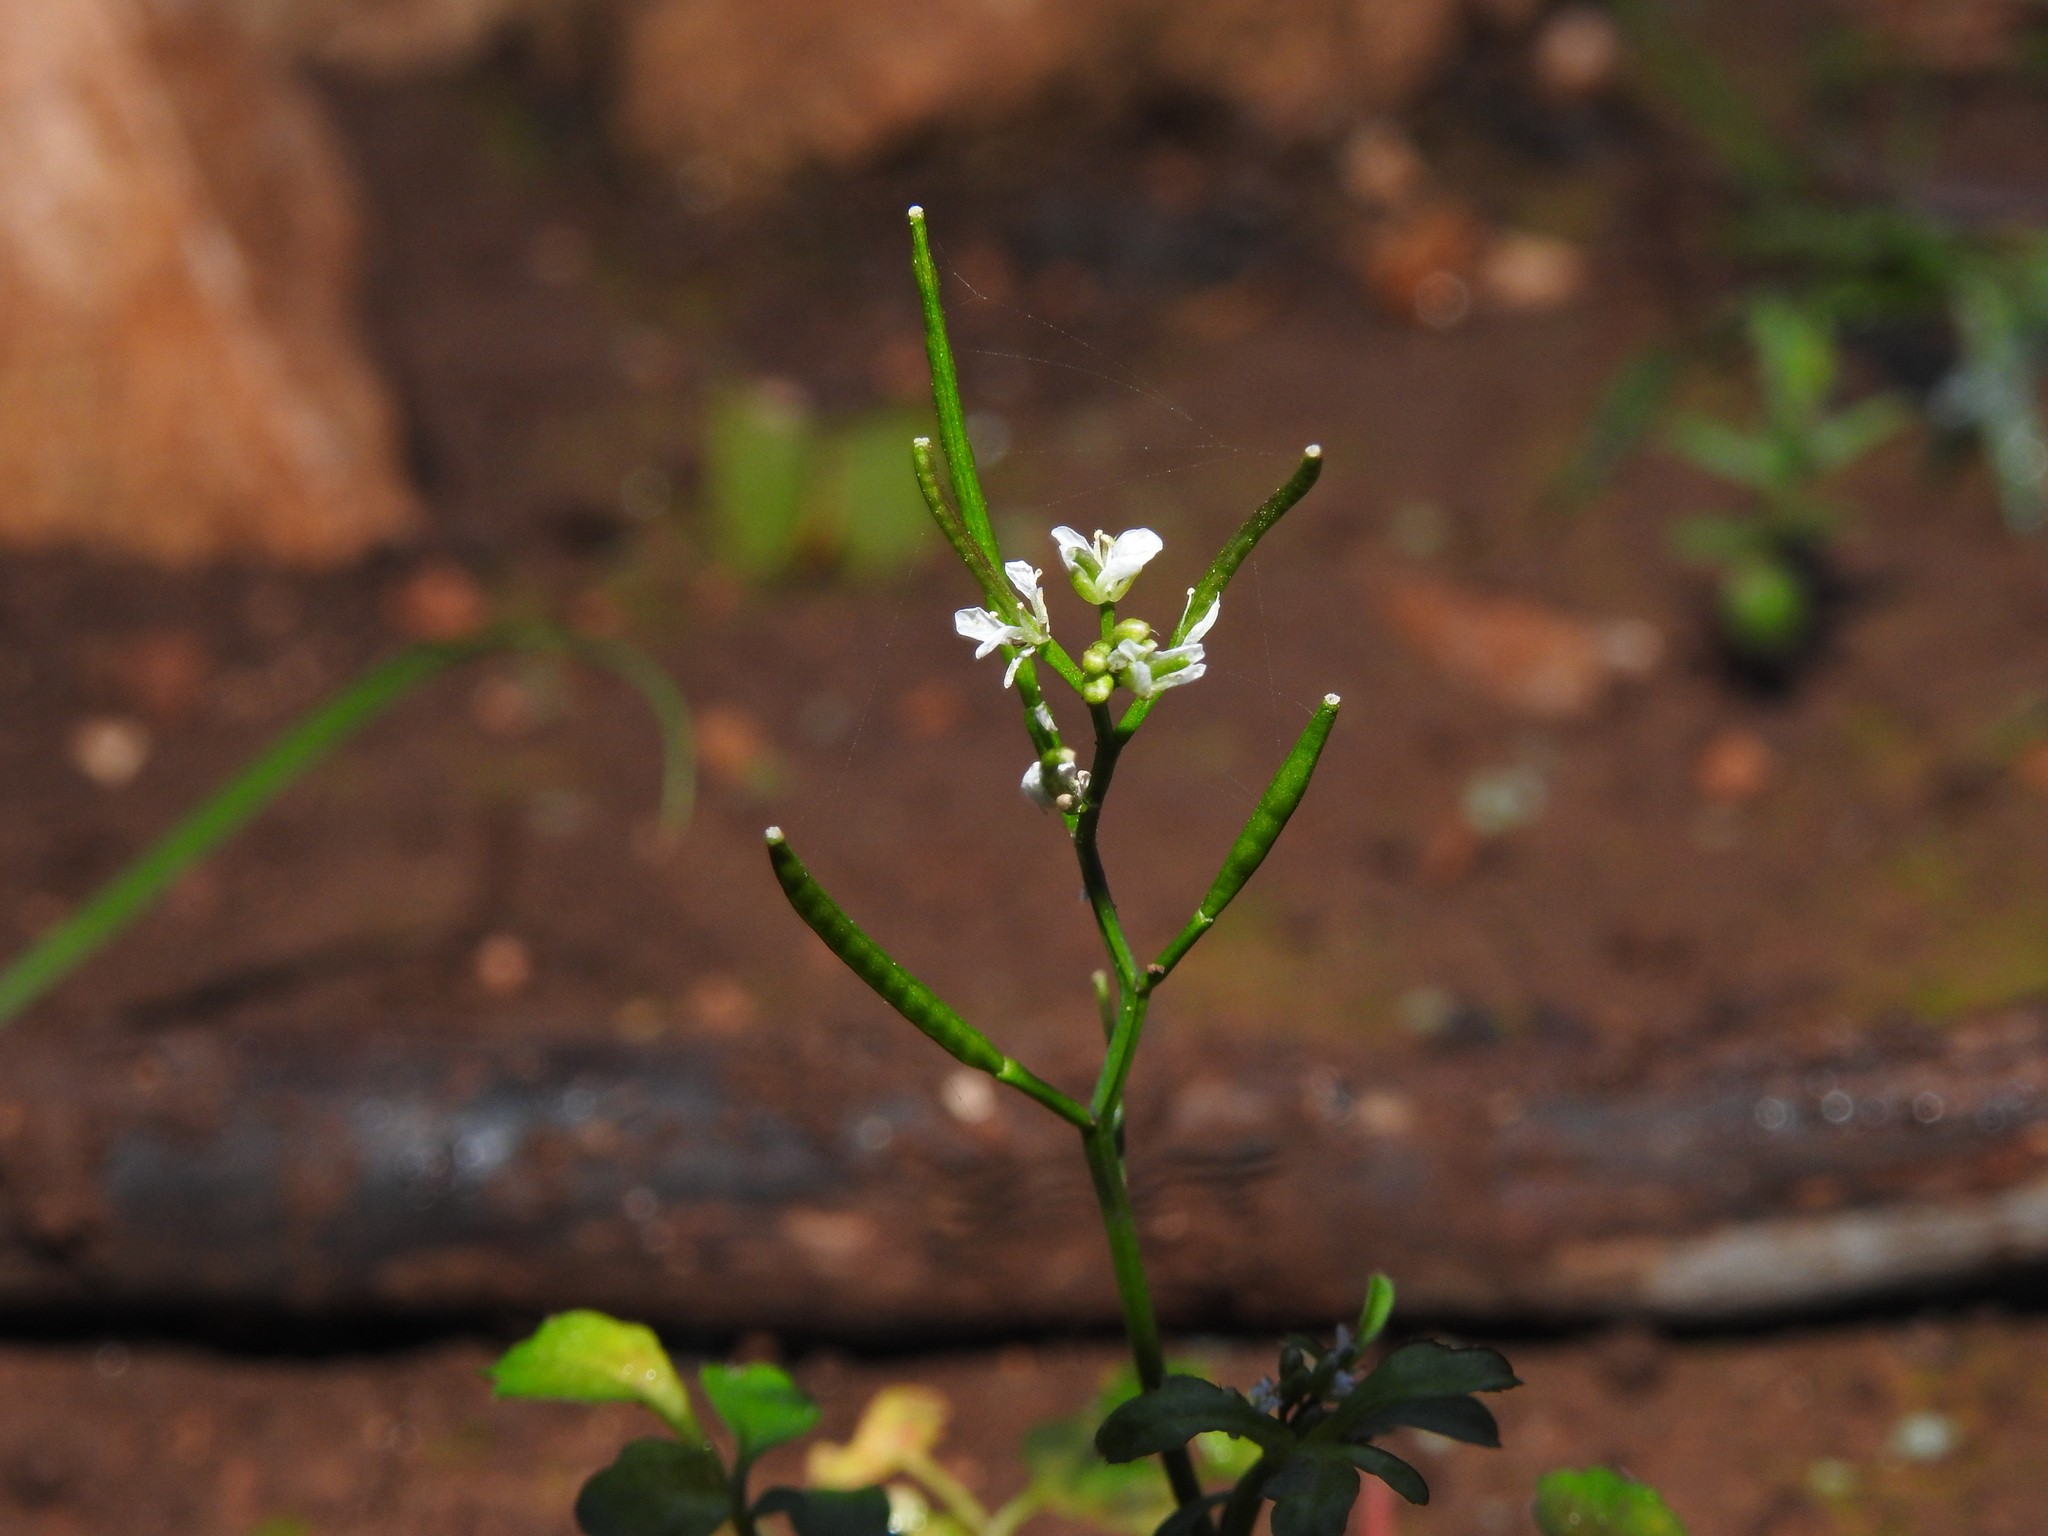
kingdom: Plantae
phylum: Tracheophyta
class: Magnoliopsida
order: Brassicales
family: Brassicaceae
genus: Cardamine
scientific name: Cardamine hirsuta
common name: Hairy bittercress
